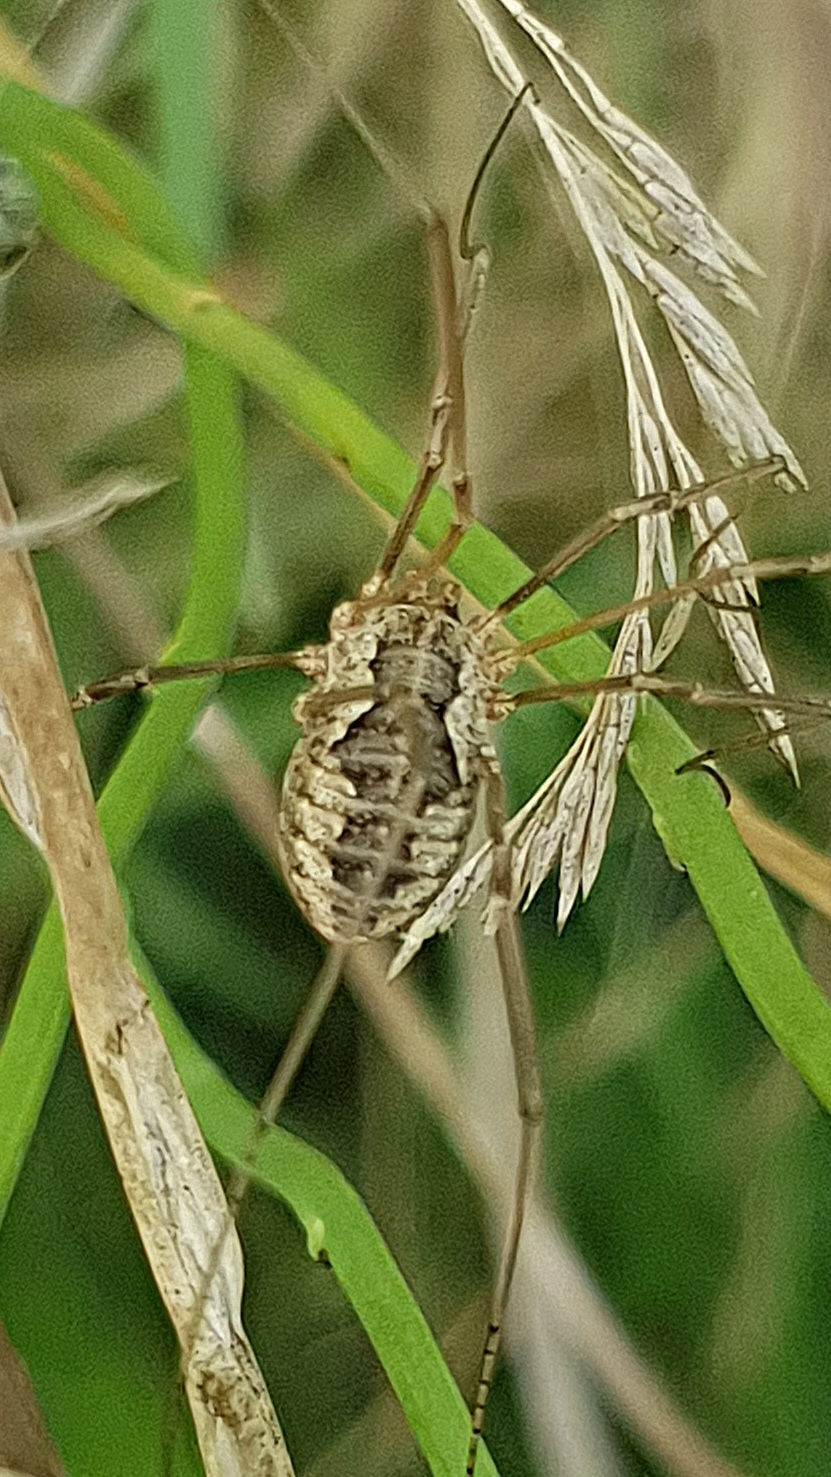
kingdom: Animalia
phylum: Arthropoda
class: Arachnida
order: Opiliones
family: Phalangiidae
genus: Phalangium
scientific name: Phalangium opilio
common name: Daddy longleg
